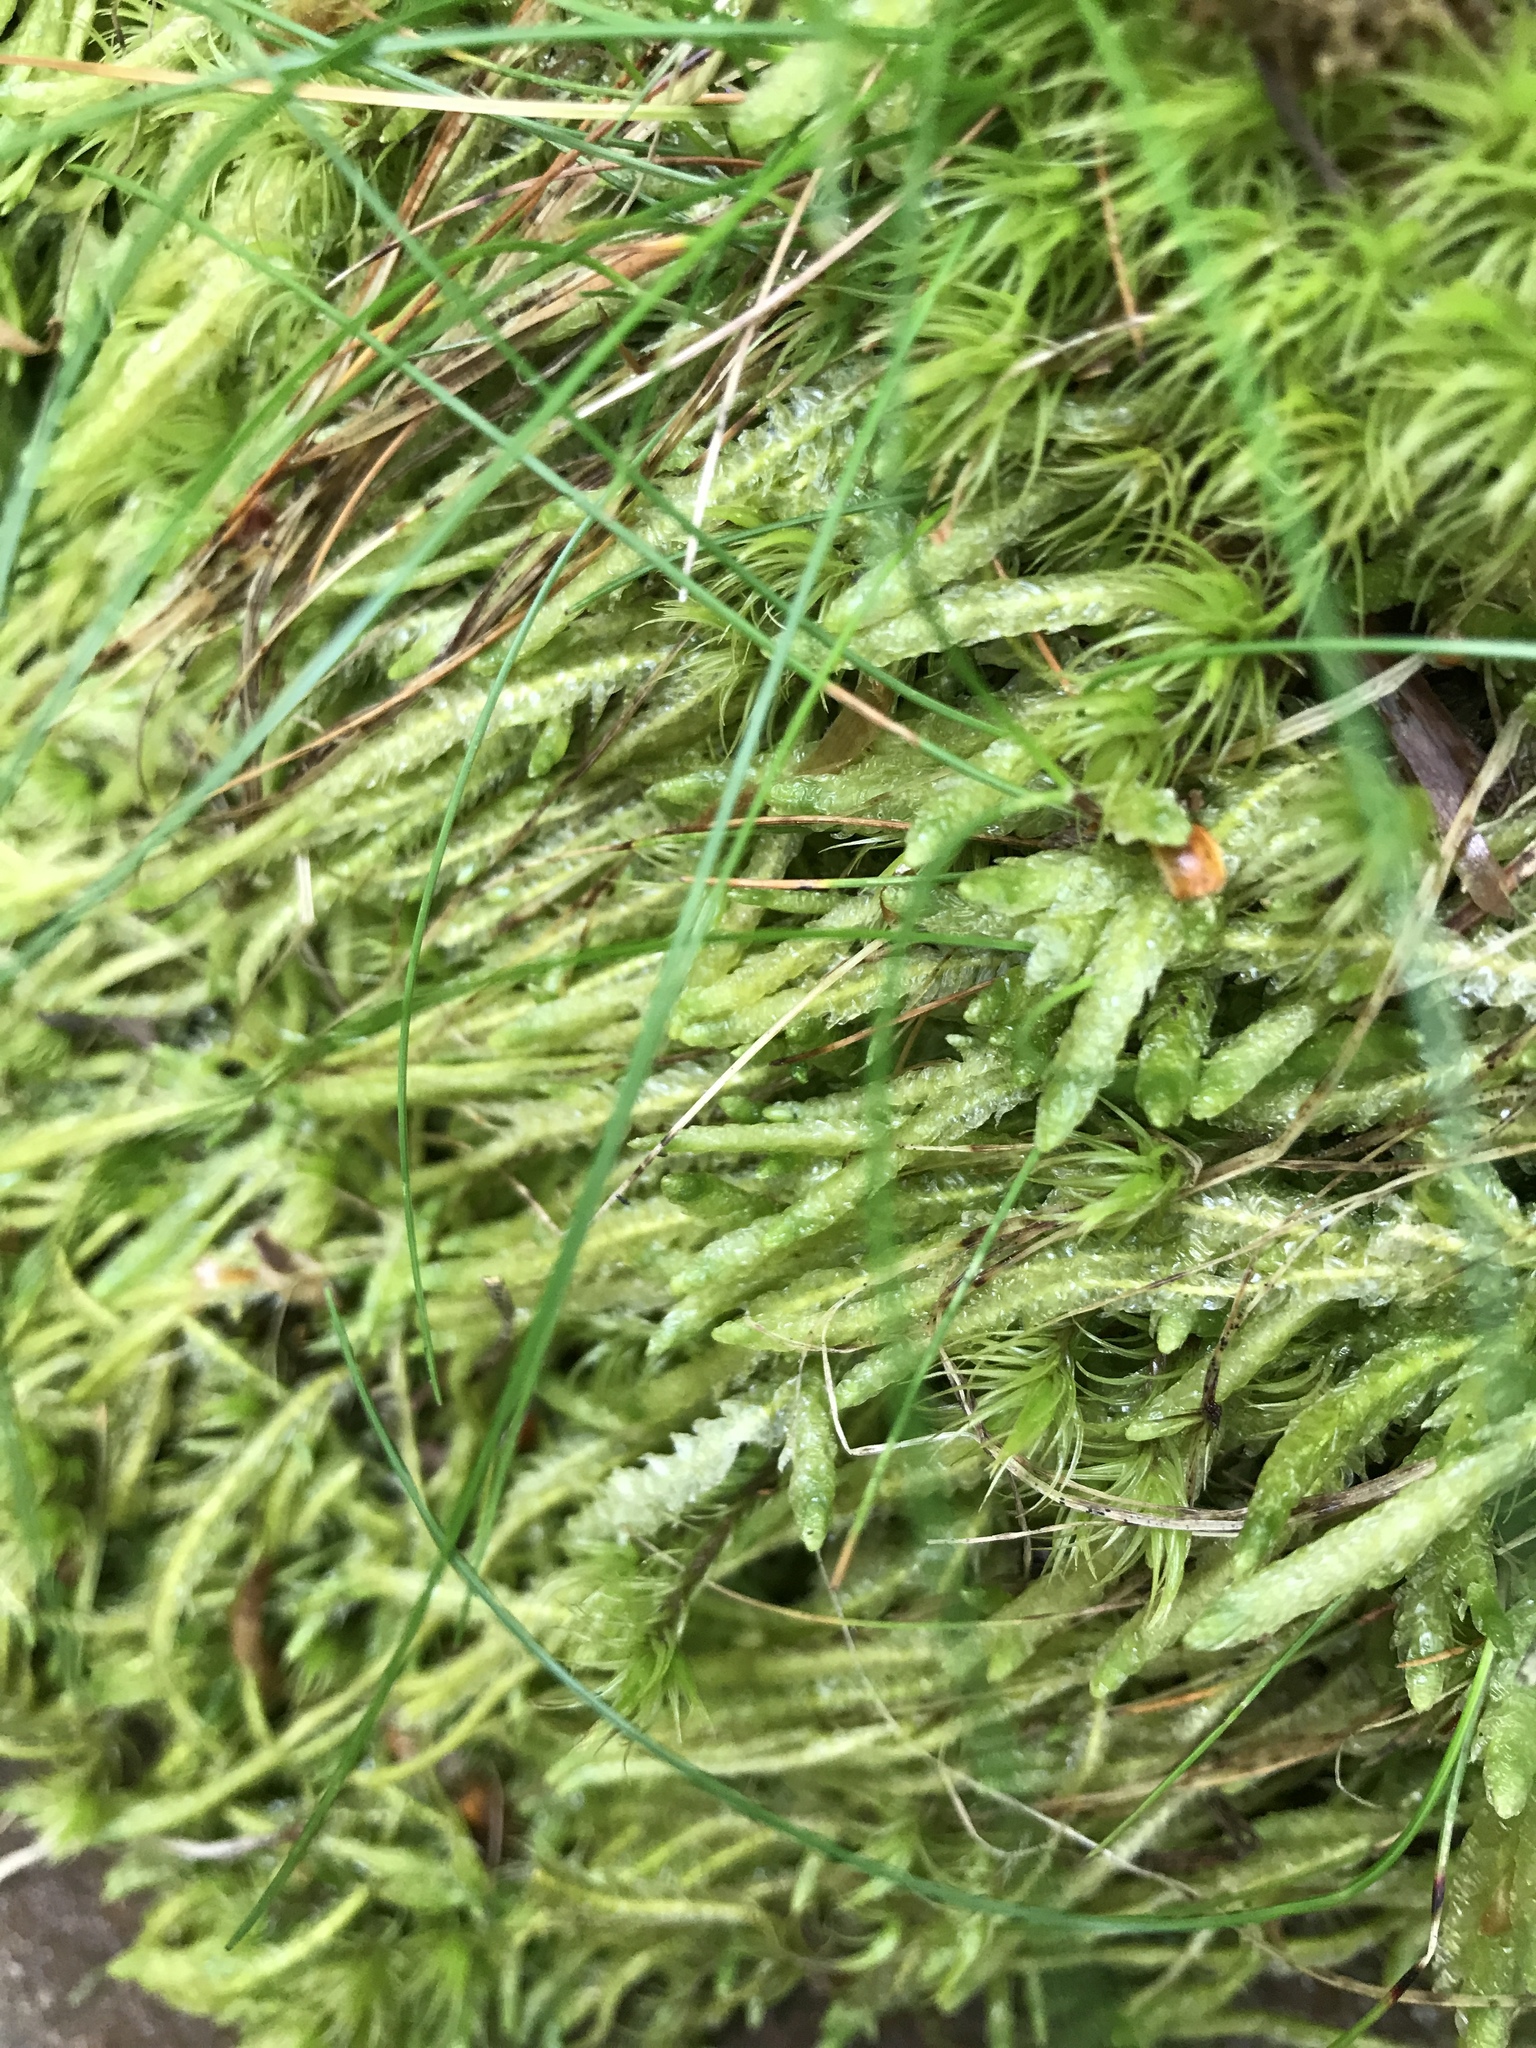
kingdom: Plantae
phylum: Bryophyta
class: Bryopsida
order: Hypnales
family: Plagiotheciaceae
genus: Plagiothecium
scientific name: Plagiothecium undulatum
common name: Waved silk-moss
